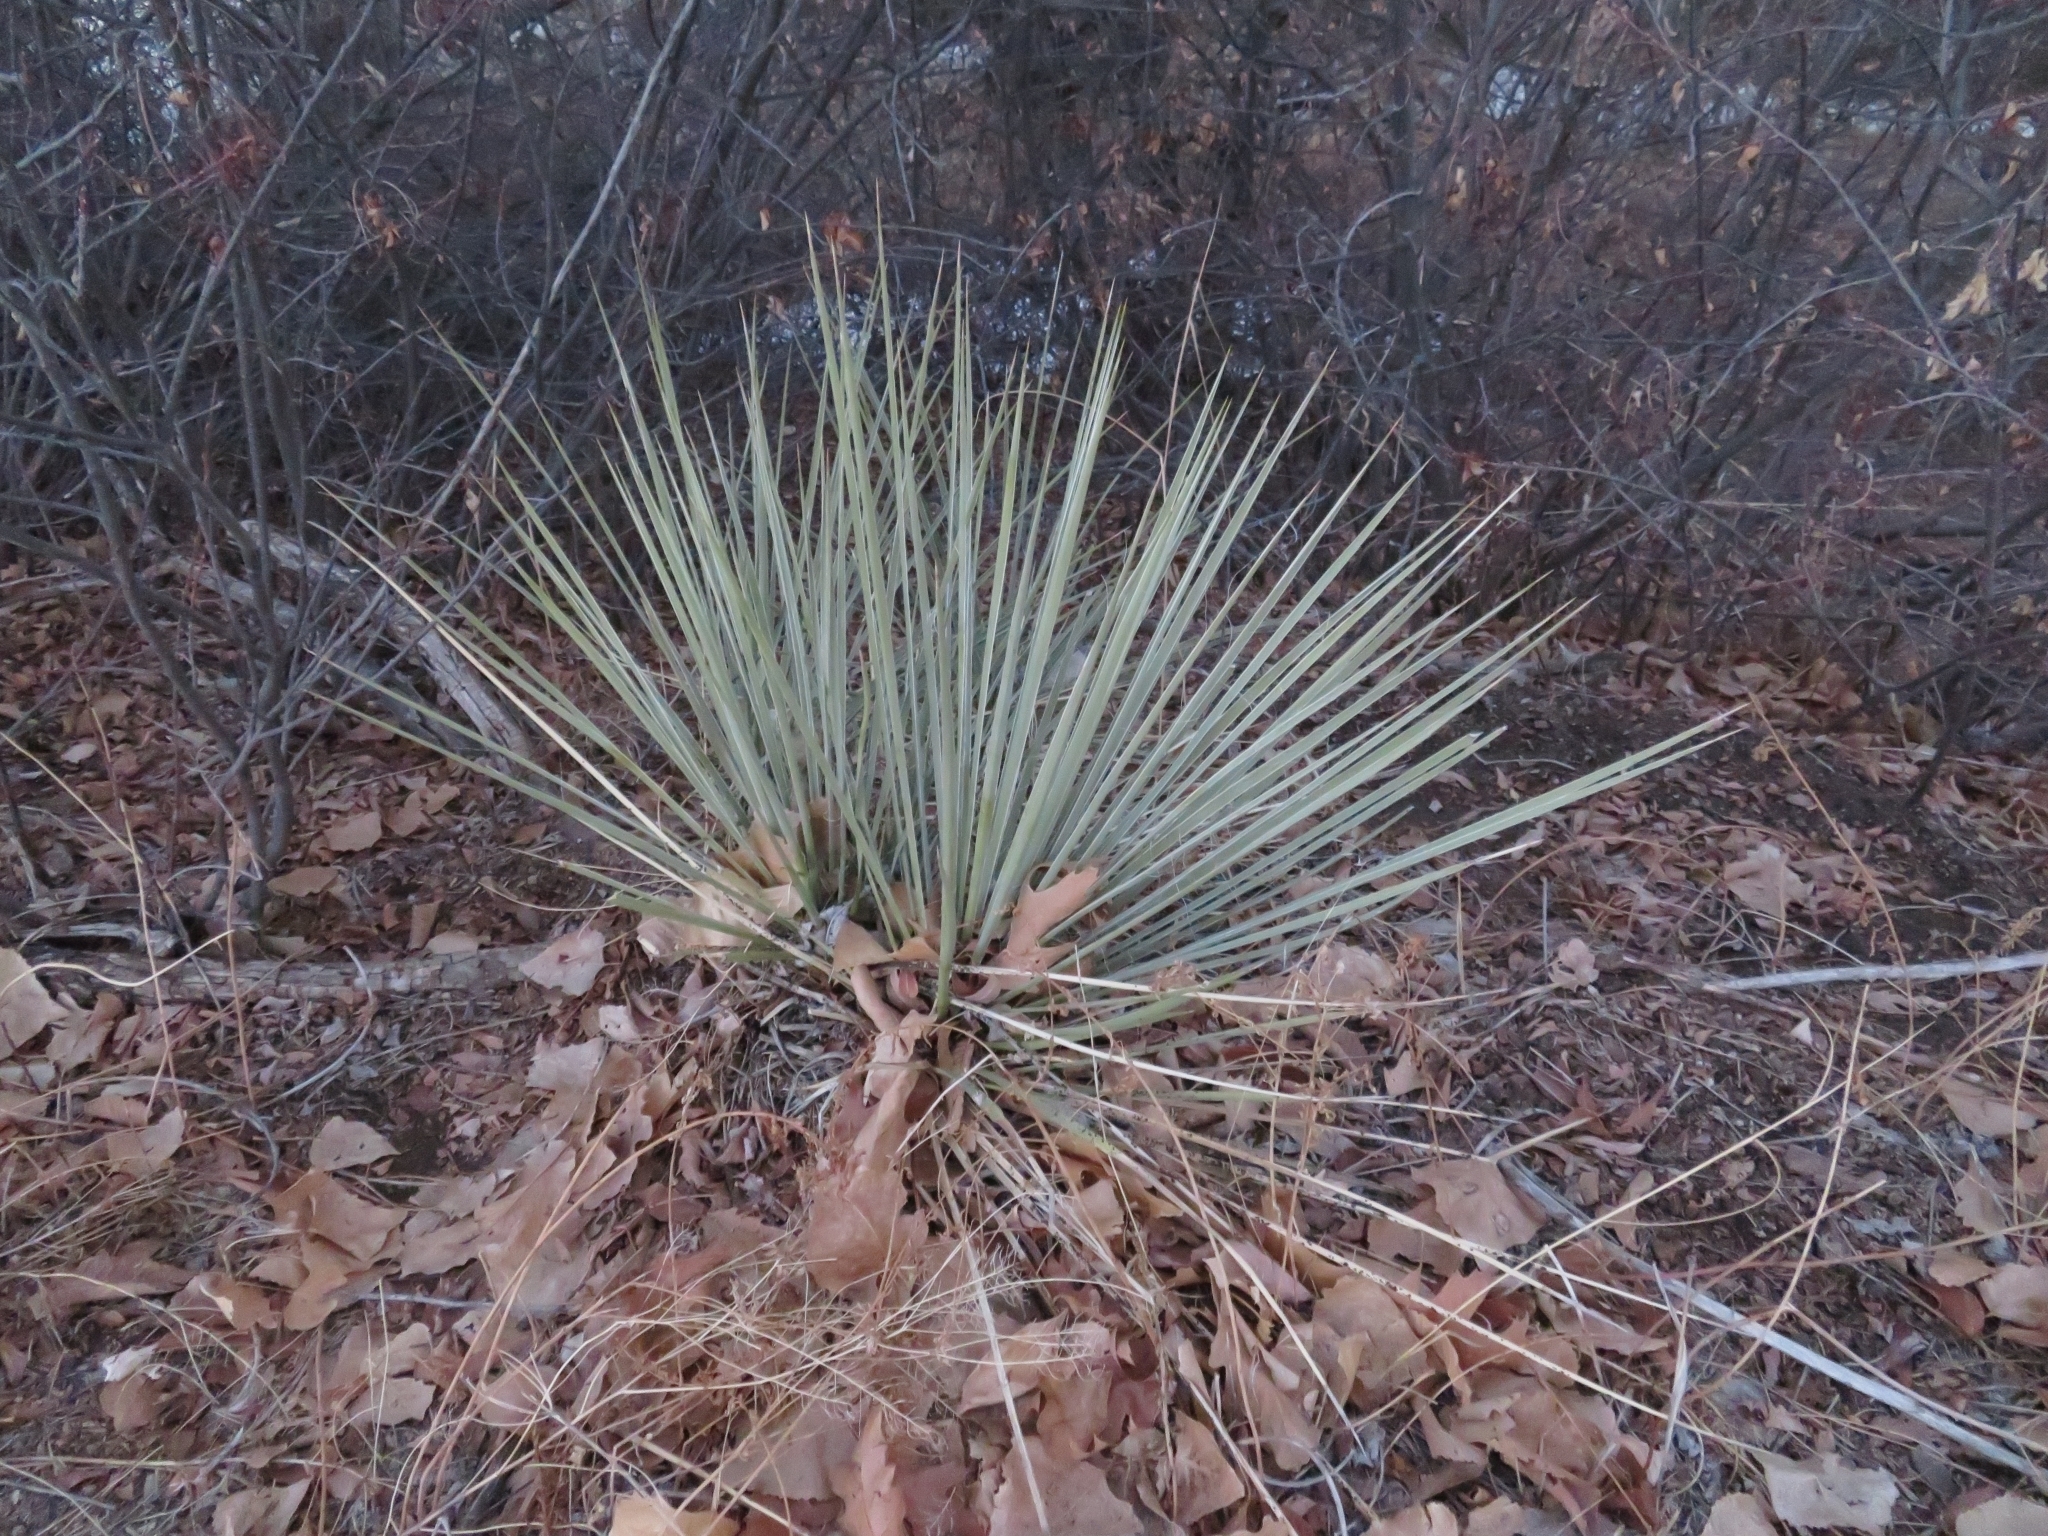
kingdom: Plantae
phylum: Tracheophyta
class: Liliopsida
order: Asparagales
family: Asparagaceae
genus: Yucca
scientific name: Yucca glauca
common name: Great plains yucca
